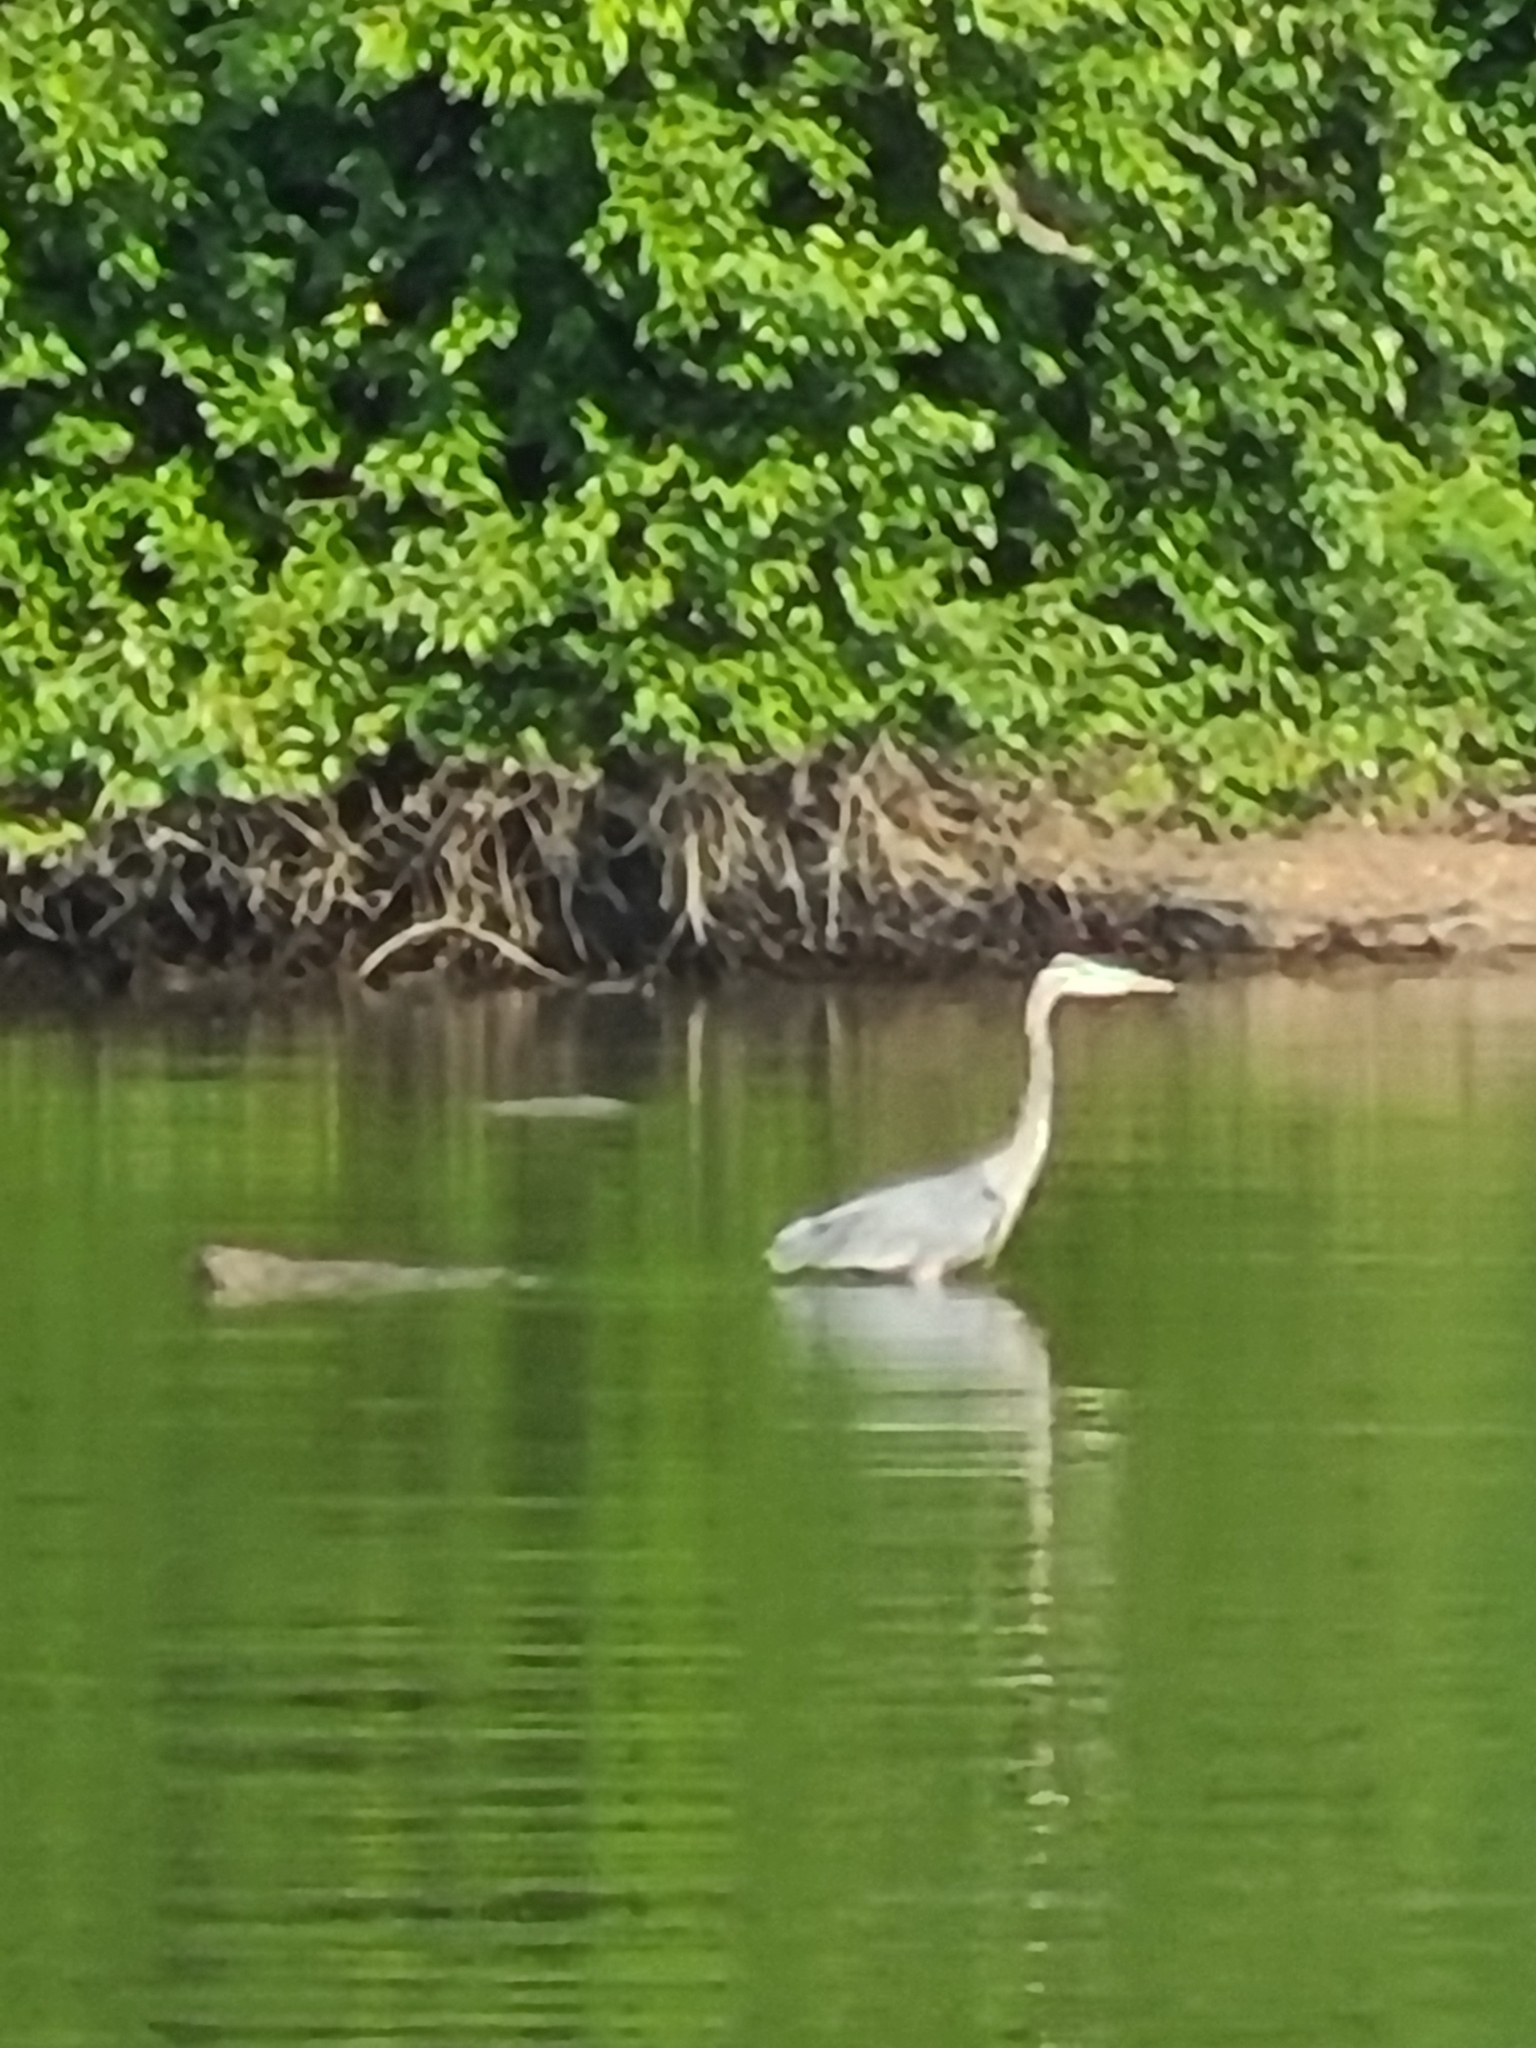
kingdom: Animalia
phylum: Chordata
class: Aves
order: Pelecaniformes
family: Ardeidae
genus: Ardea
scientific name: Ardea herodias
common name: Great blue heron
